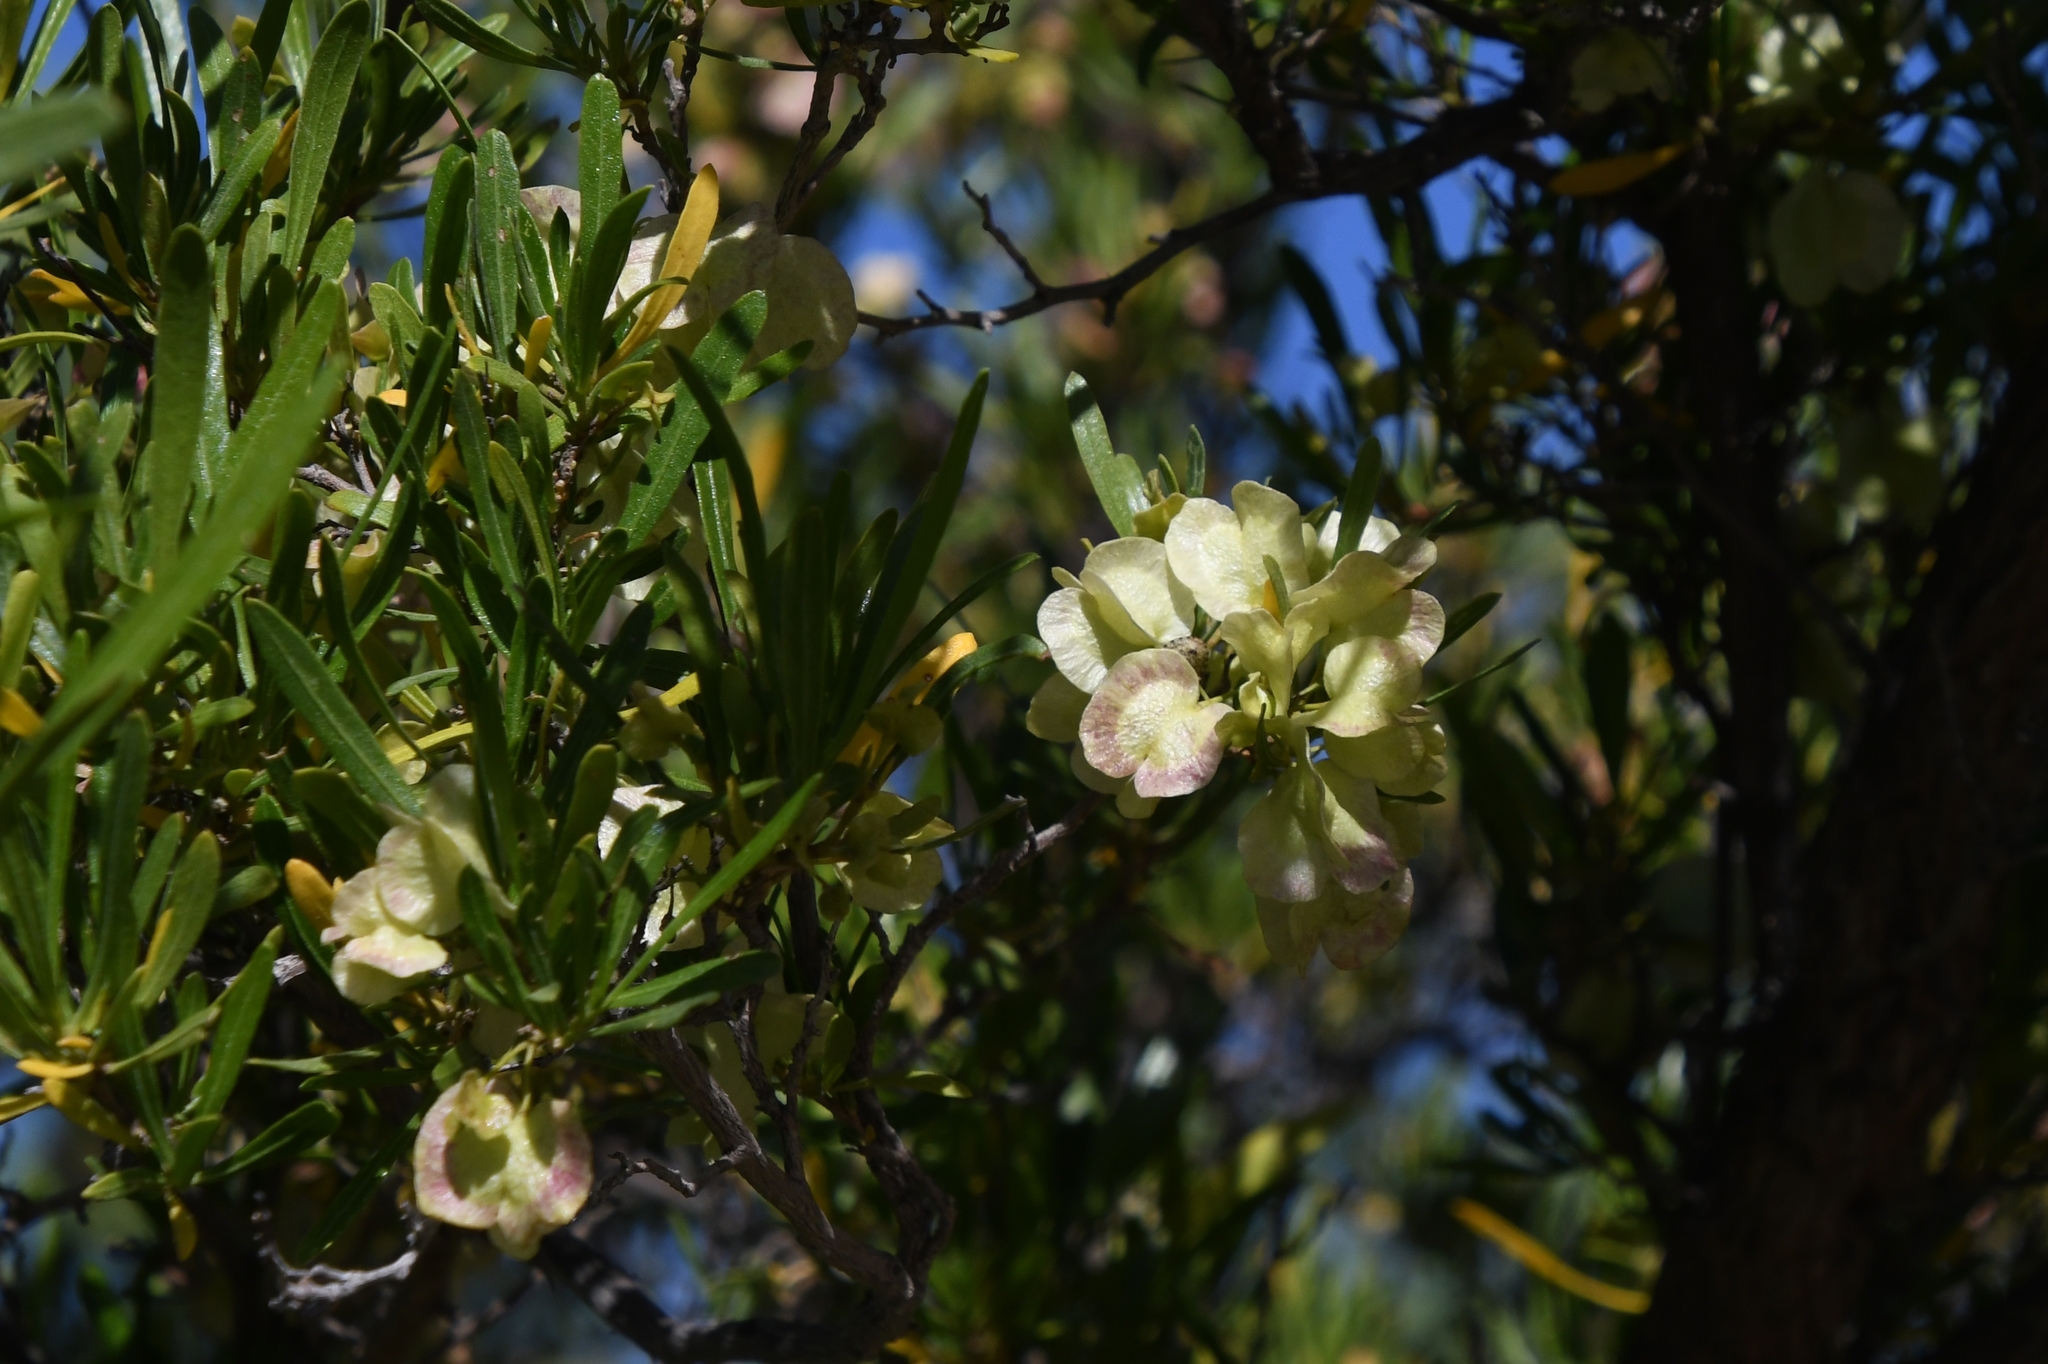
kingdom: Plantae
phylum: Tracheophyta
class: Magnoliopsida
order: Sapindales
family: Sapindaceae
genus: Dodonaea
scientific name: Dodonaea viscosa
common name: Hopbush
